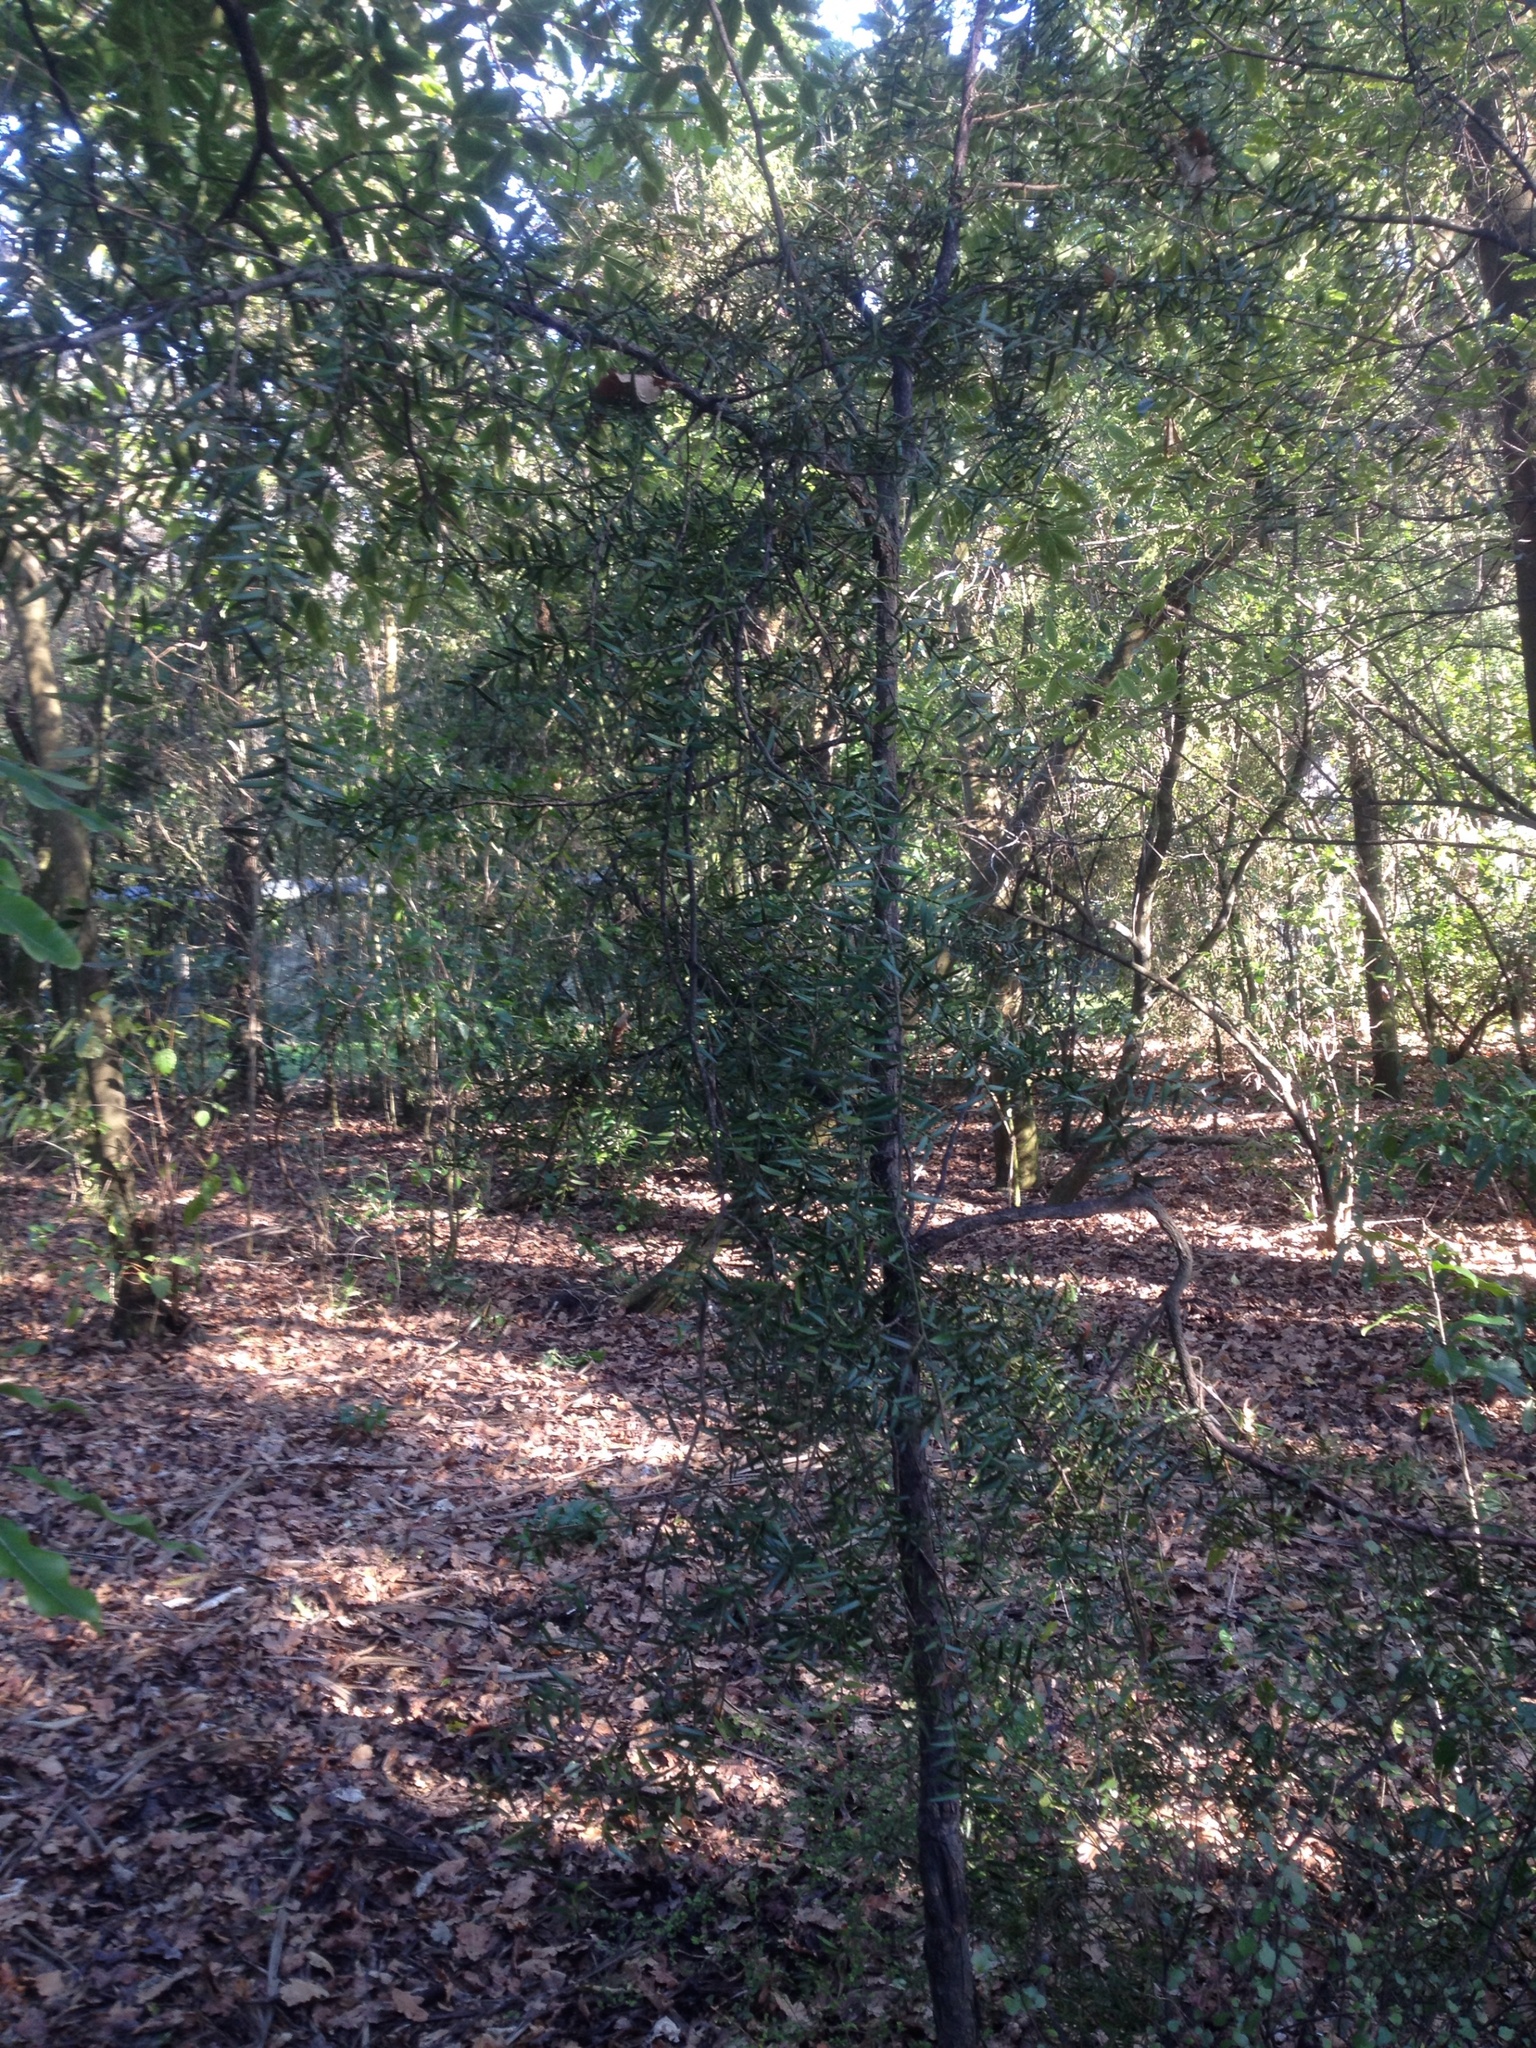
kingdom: Plantae
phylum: Tracheophyta
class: Pinopsida
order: Pinales
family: Podocarpaceae
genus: Podocarpus
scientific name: Podocarpus totara
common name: Totara
